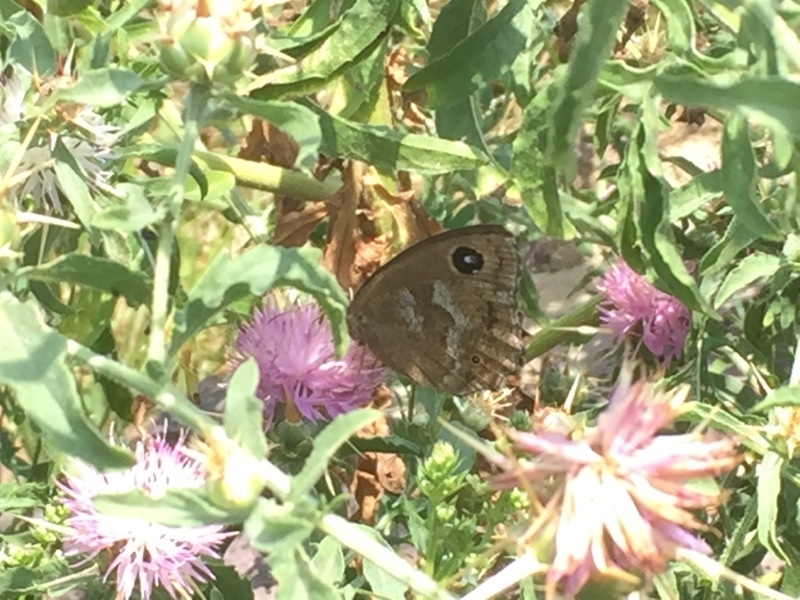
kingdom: Animalia
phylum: Arthropoda
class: Insecta
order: Lepidoptera
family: Nymphalidae
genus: Minois
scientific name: Minois dryas
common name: Dryad
